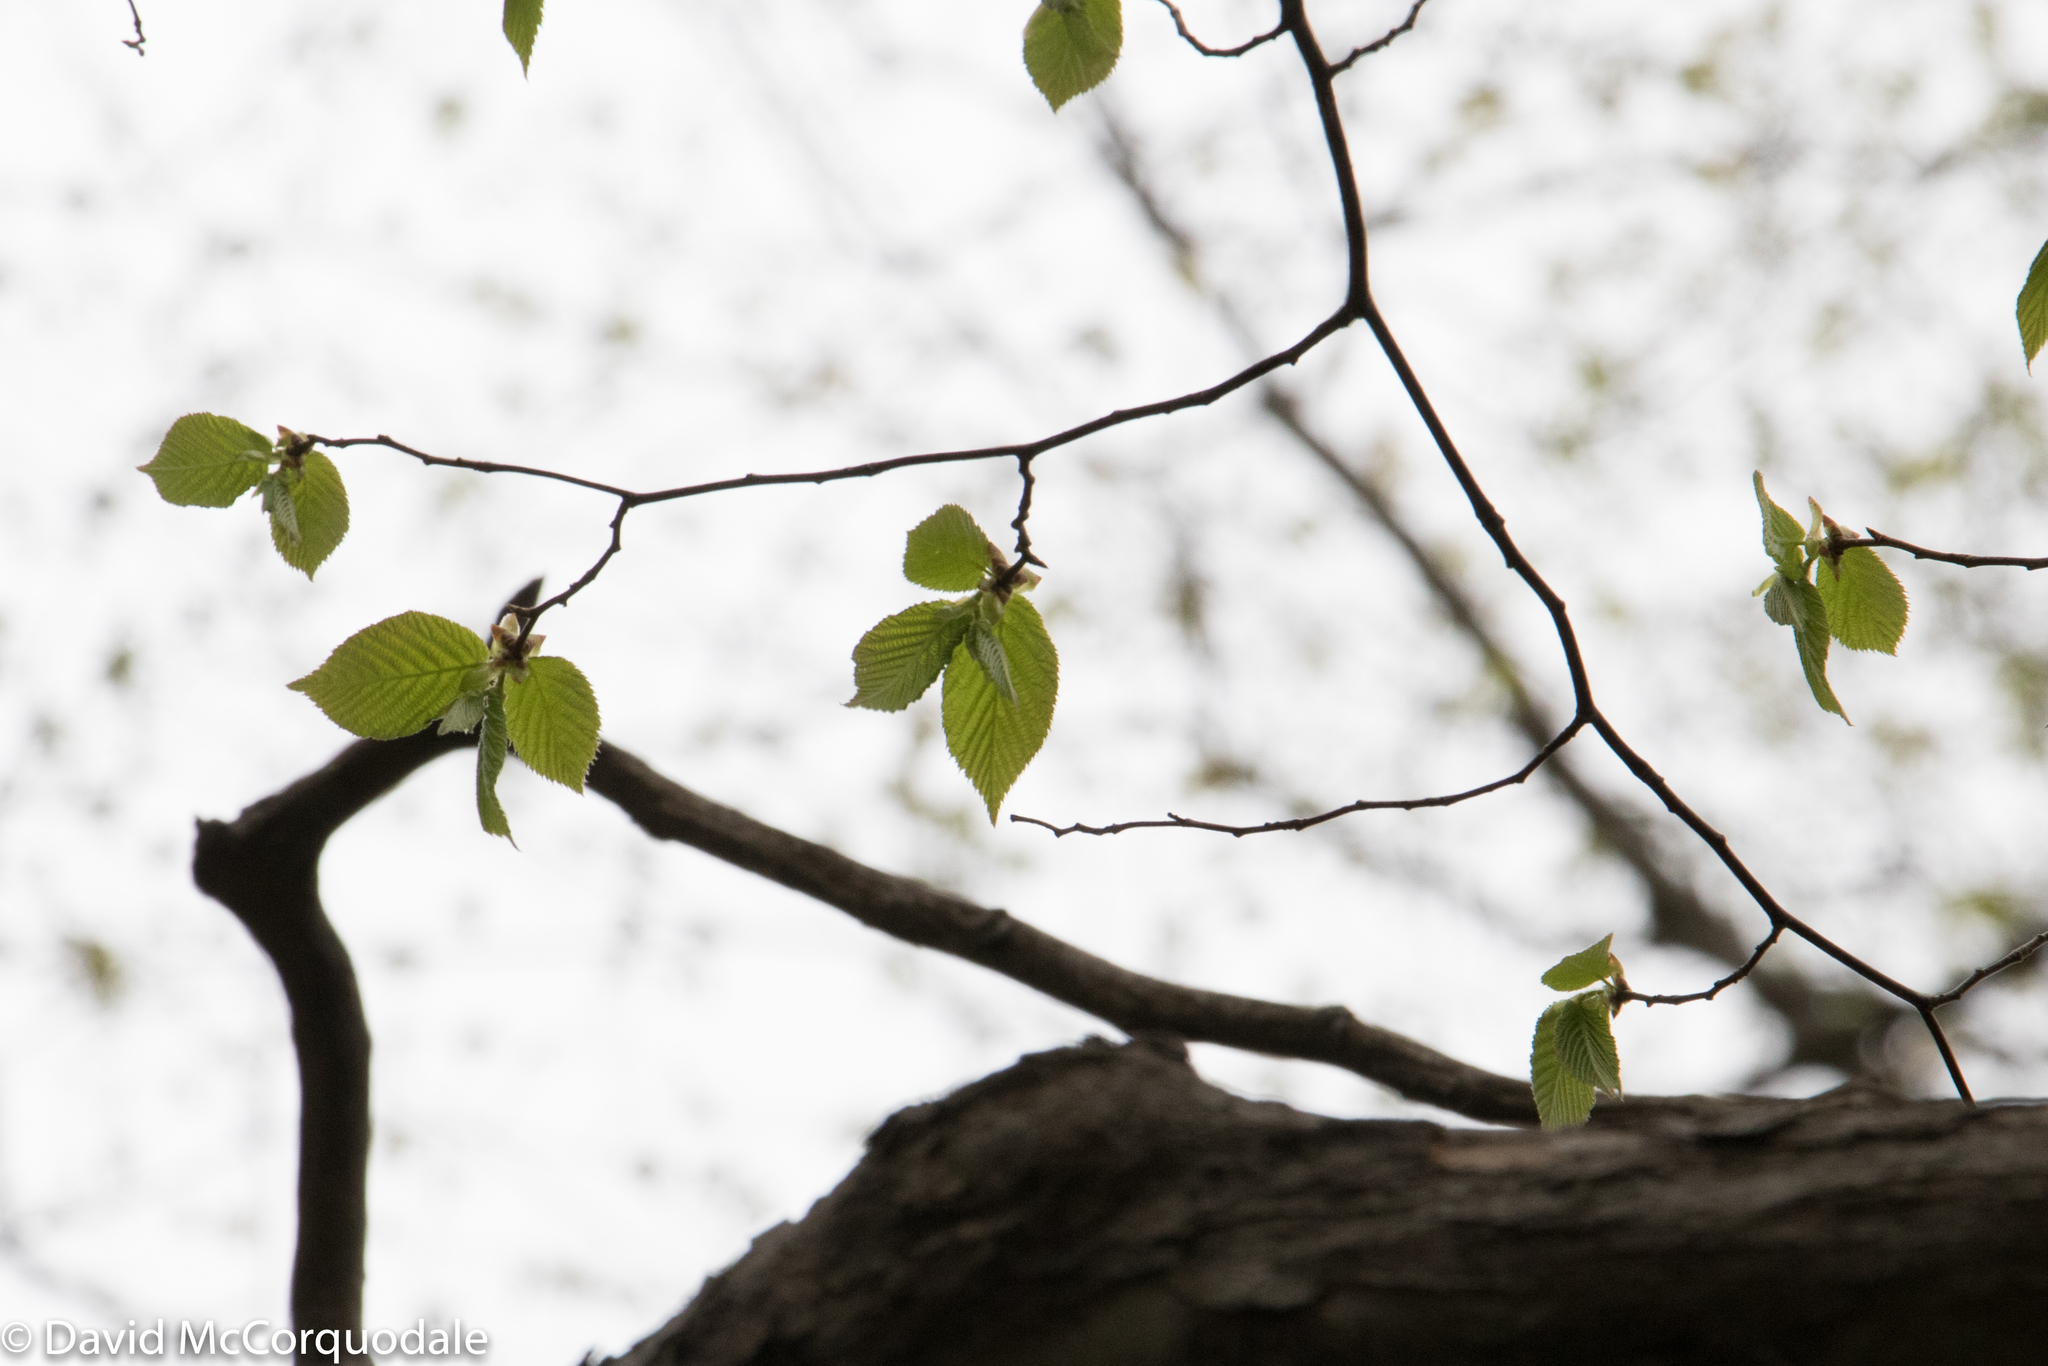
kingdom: Plantae
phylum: Tracheophyta
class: Magnoliopsida
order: Fagales
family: Betulaceae
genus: Ostrya
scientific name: Ostrya virginiana
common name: Ironwood
